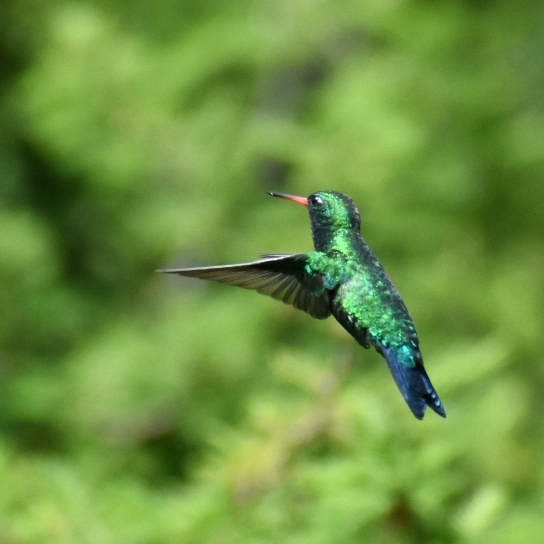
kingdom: Animalia
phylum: Chordata
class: Aves
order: Apodiformes
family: Trochilidae
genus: Chlorostilbon
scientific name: Chlorostilbon lucidus
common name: Glittering-bellied emerald
